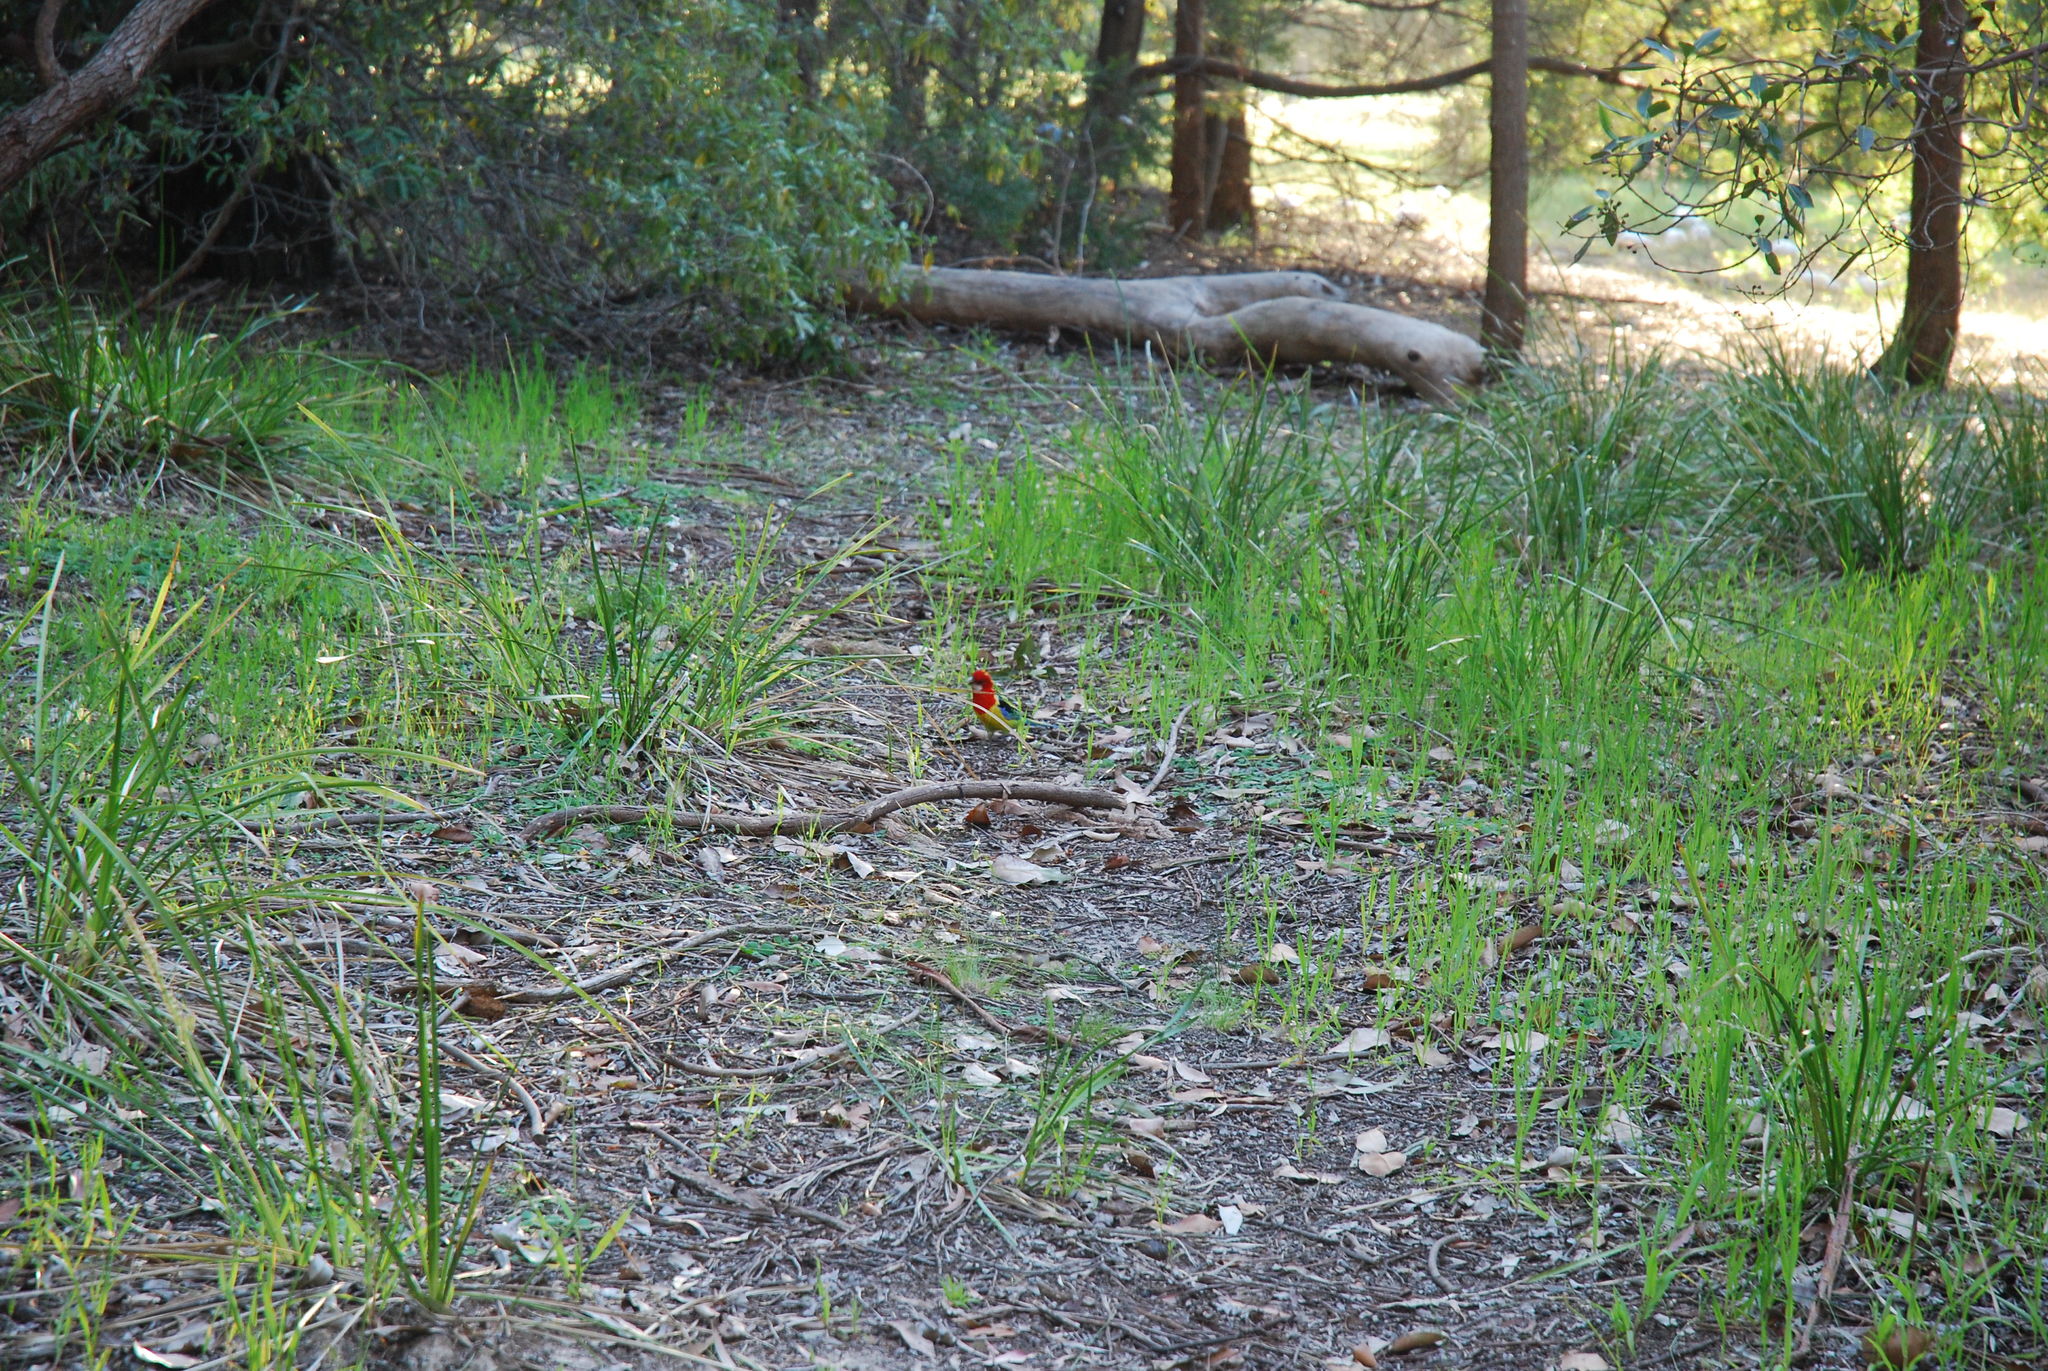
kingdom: Animalia
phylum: Chordata
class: Aves
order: Psittaciformes
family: Psittacidae
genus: Platycercus
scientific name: Platycercus eximius
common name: Eastern rosella
